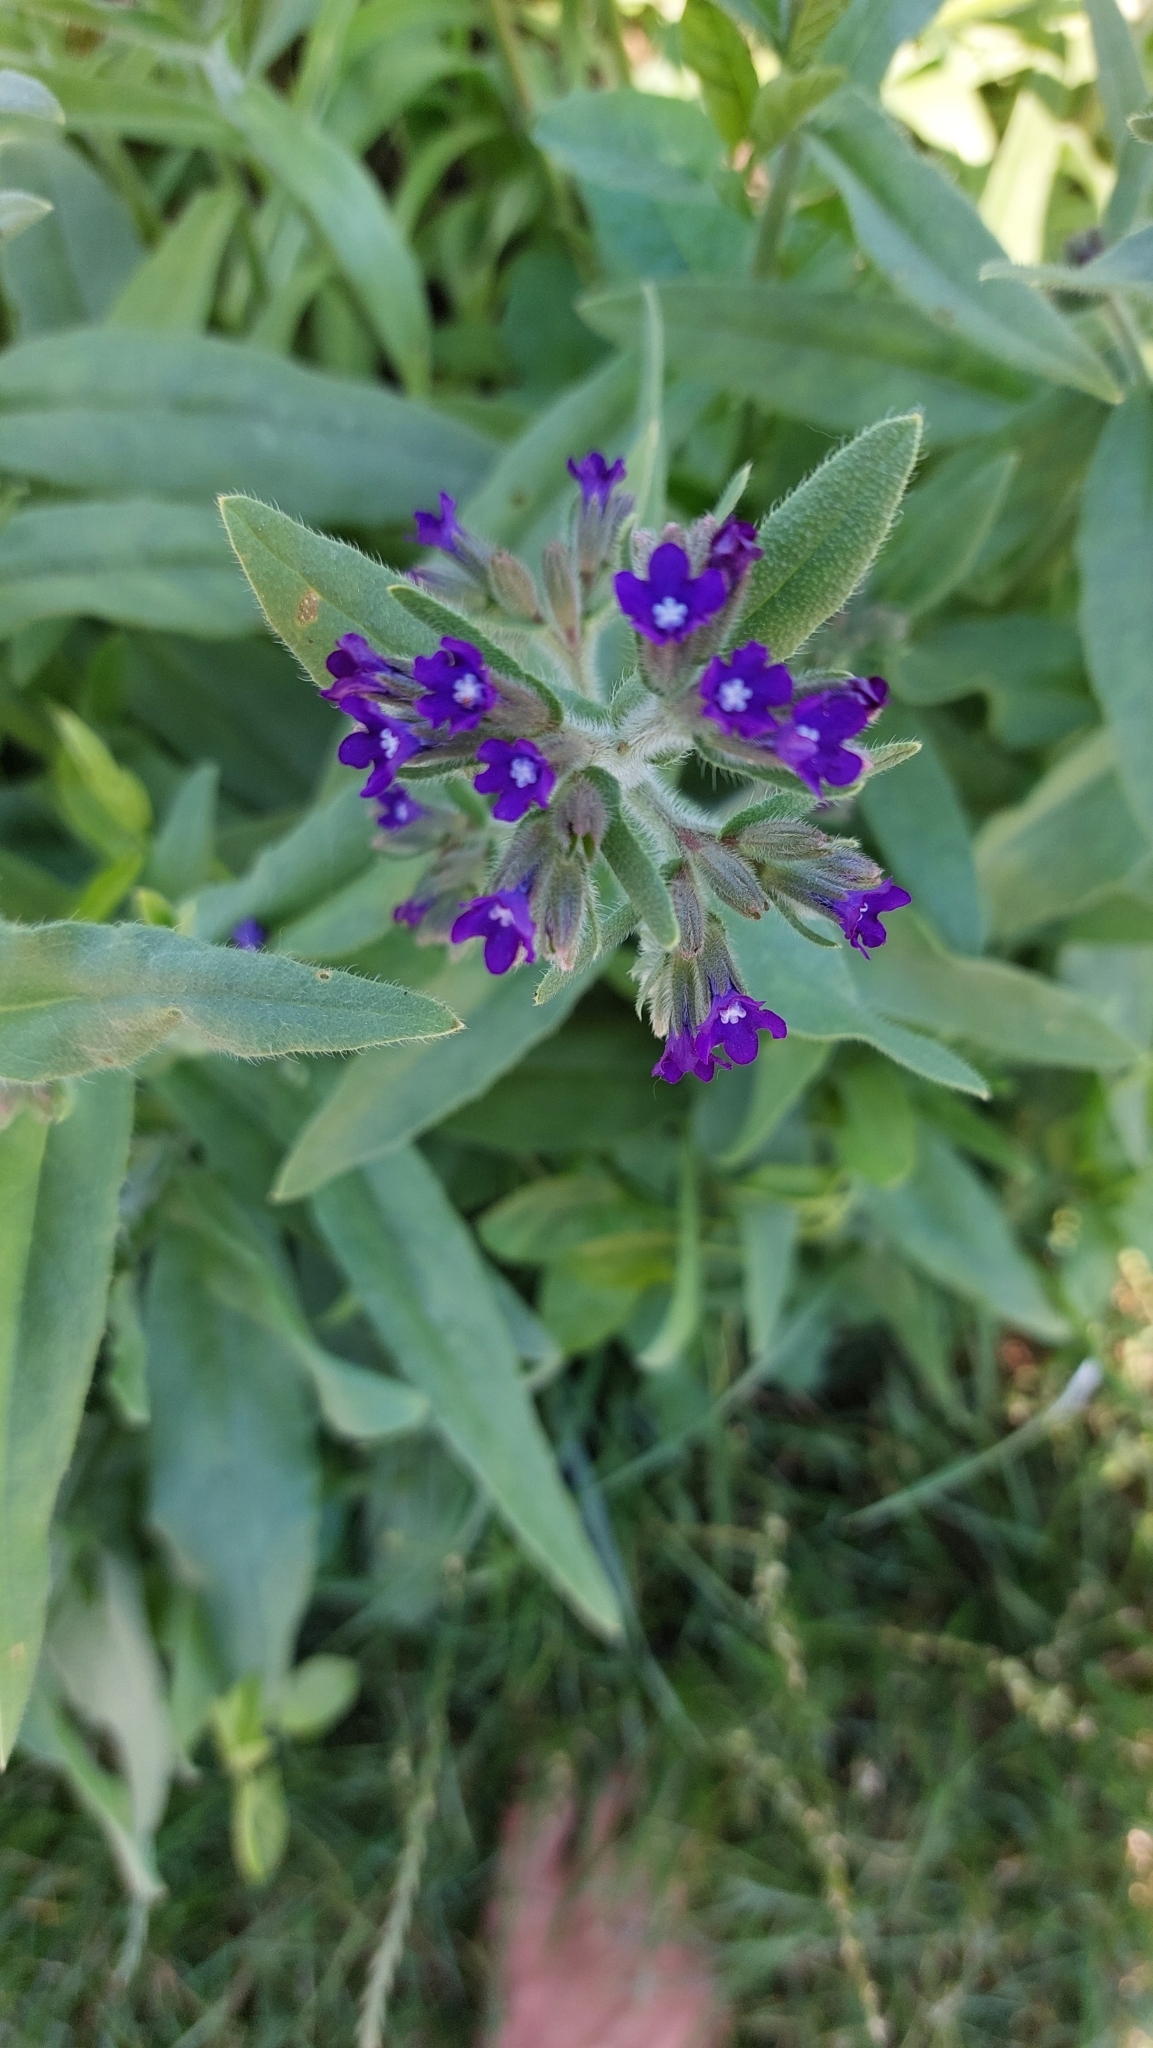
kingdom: Plantae
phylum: Tracheophyta
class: Magnoliopsida
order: Boraginales
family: Boraginaceae
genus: Anchusa
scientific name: Anchusa officinalis
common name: Alkanet
